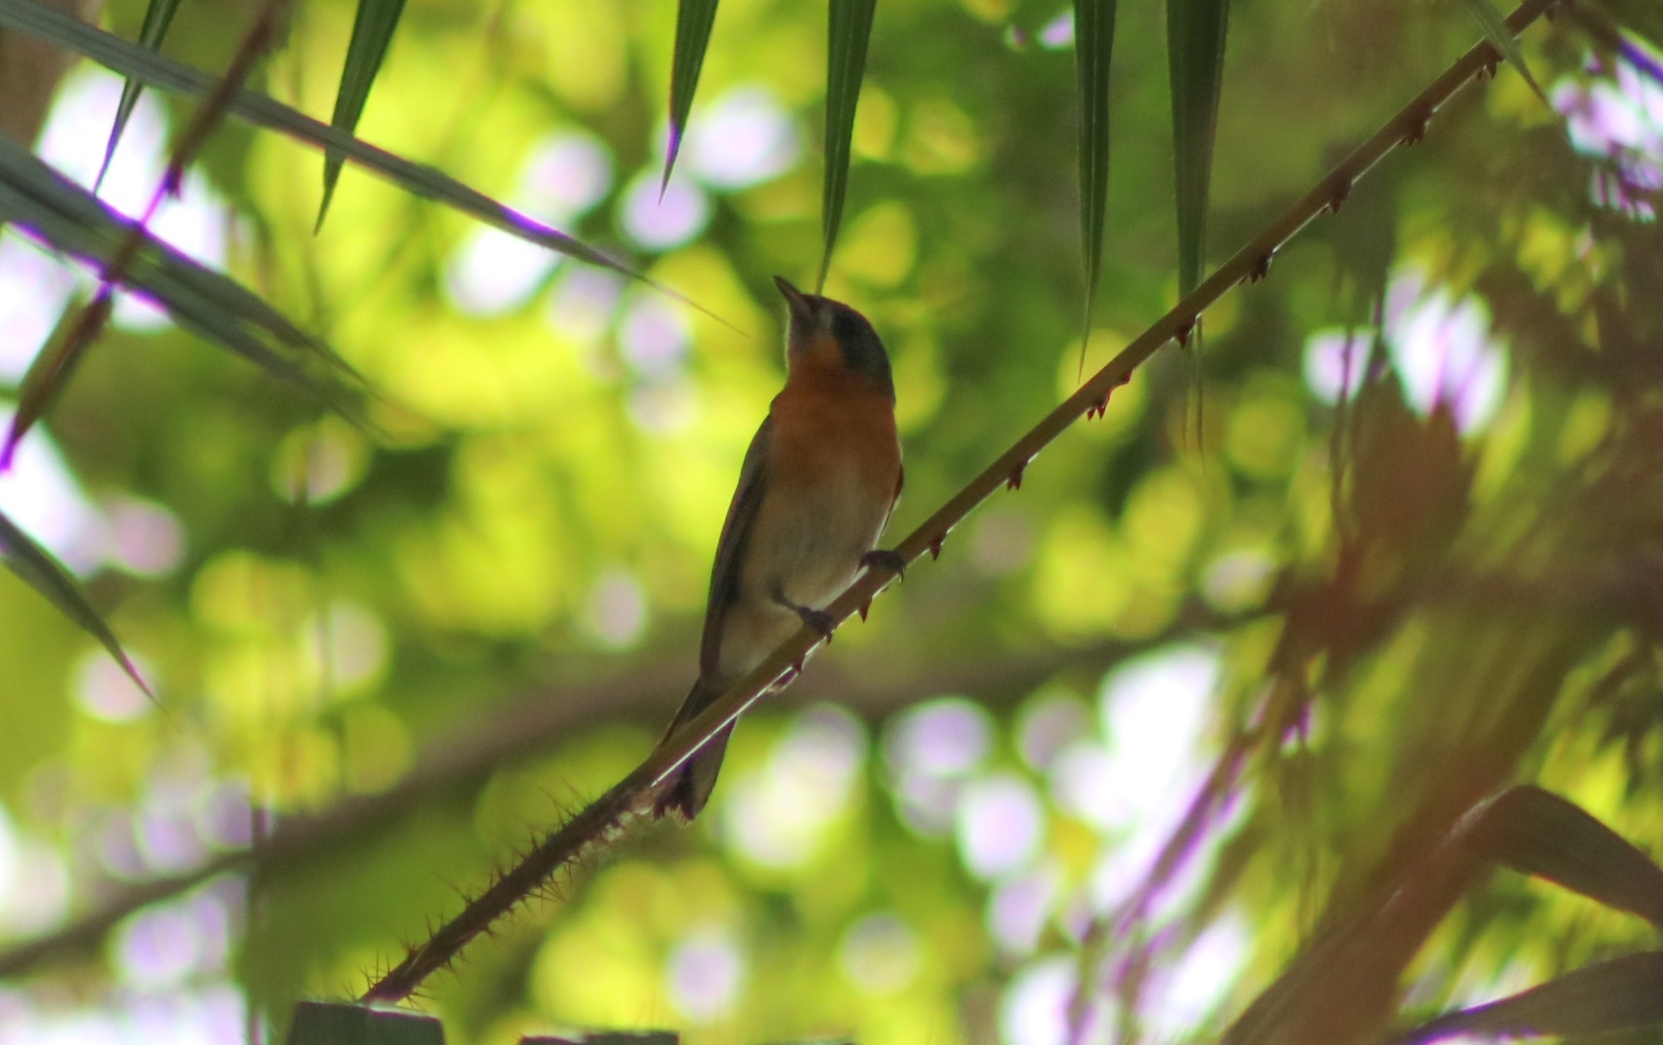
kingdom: Animalia
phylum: Chordata
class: Aves
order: Passeriformes
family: Monarchidae
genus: Symposiachrus
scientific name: Symposiachrus trivirgatus
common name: Spectacled monarch
